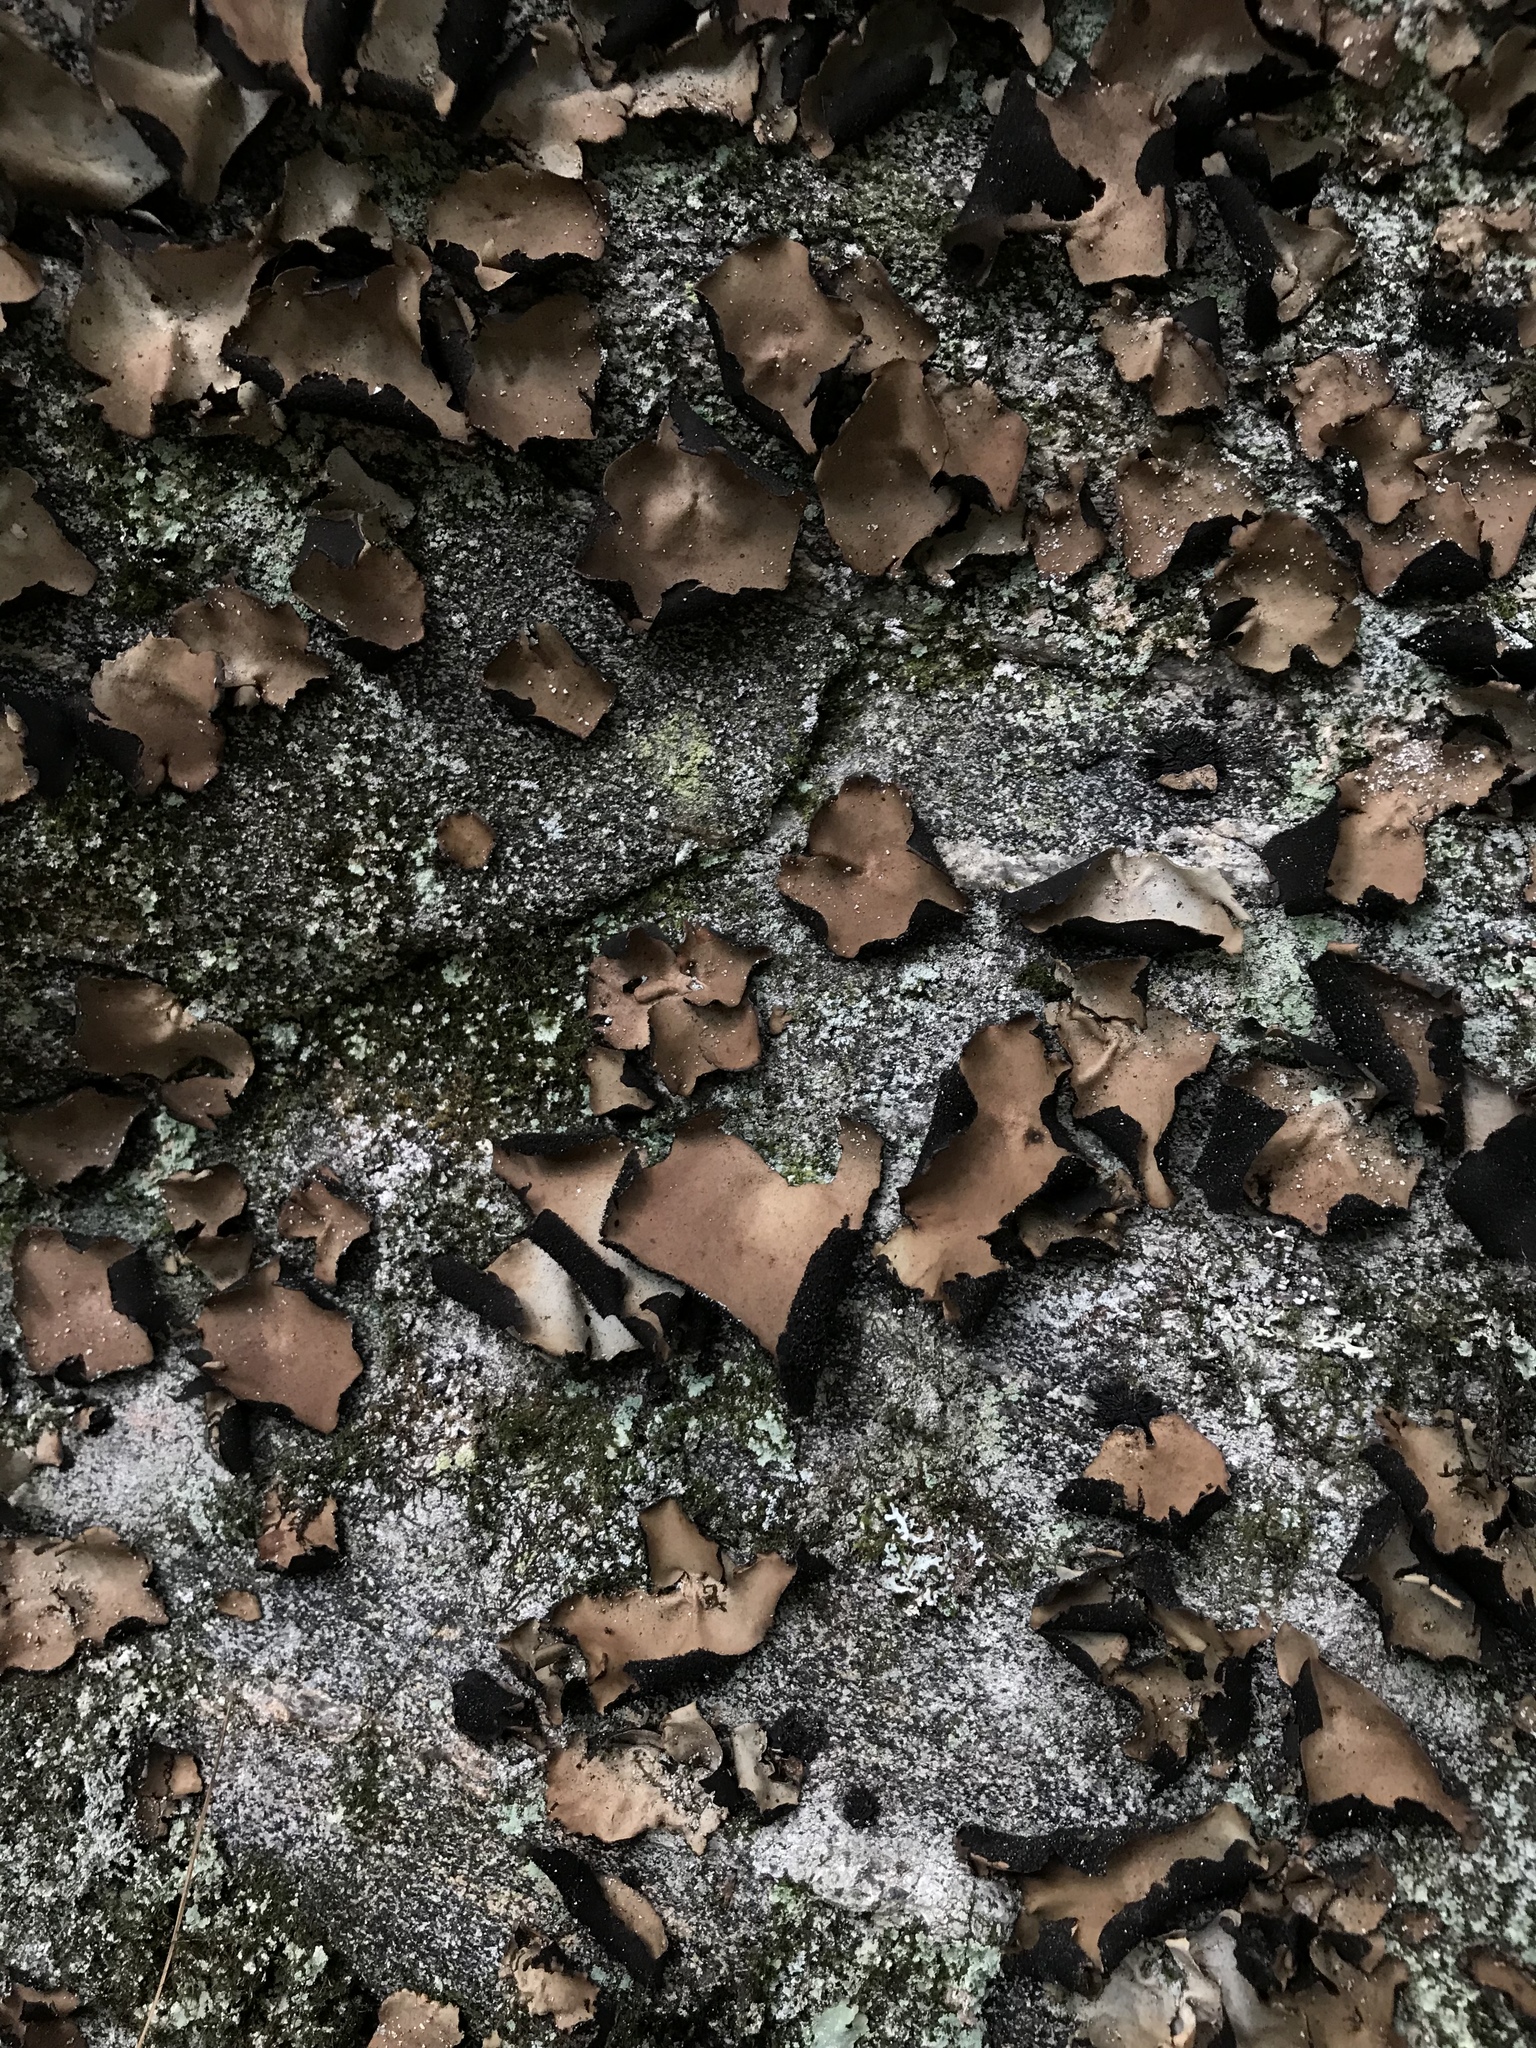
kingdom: Fungi
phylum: Ascomycota
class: Lecanoromycetes
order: Umbilicariales
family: Umbilicariaceae
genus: Umbilicaria
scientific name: Umbilicaria mammulata
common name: Smooth rock tripe
